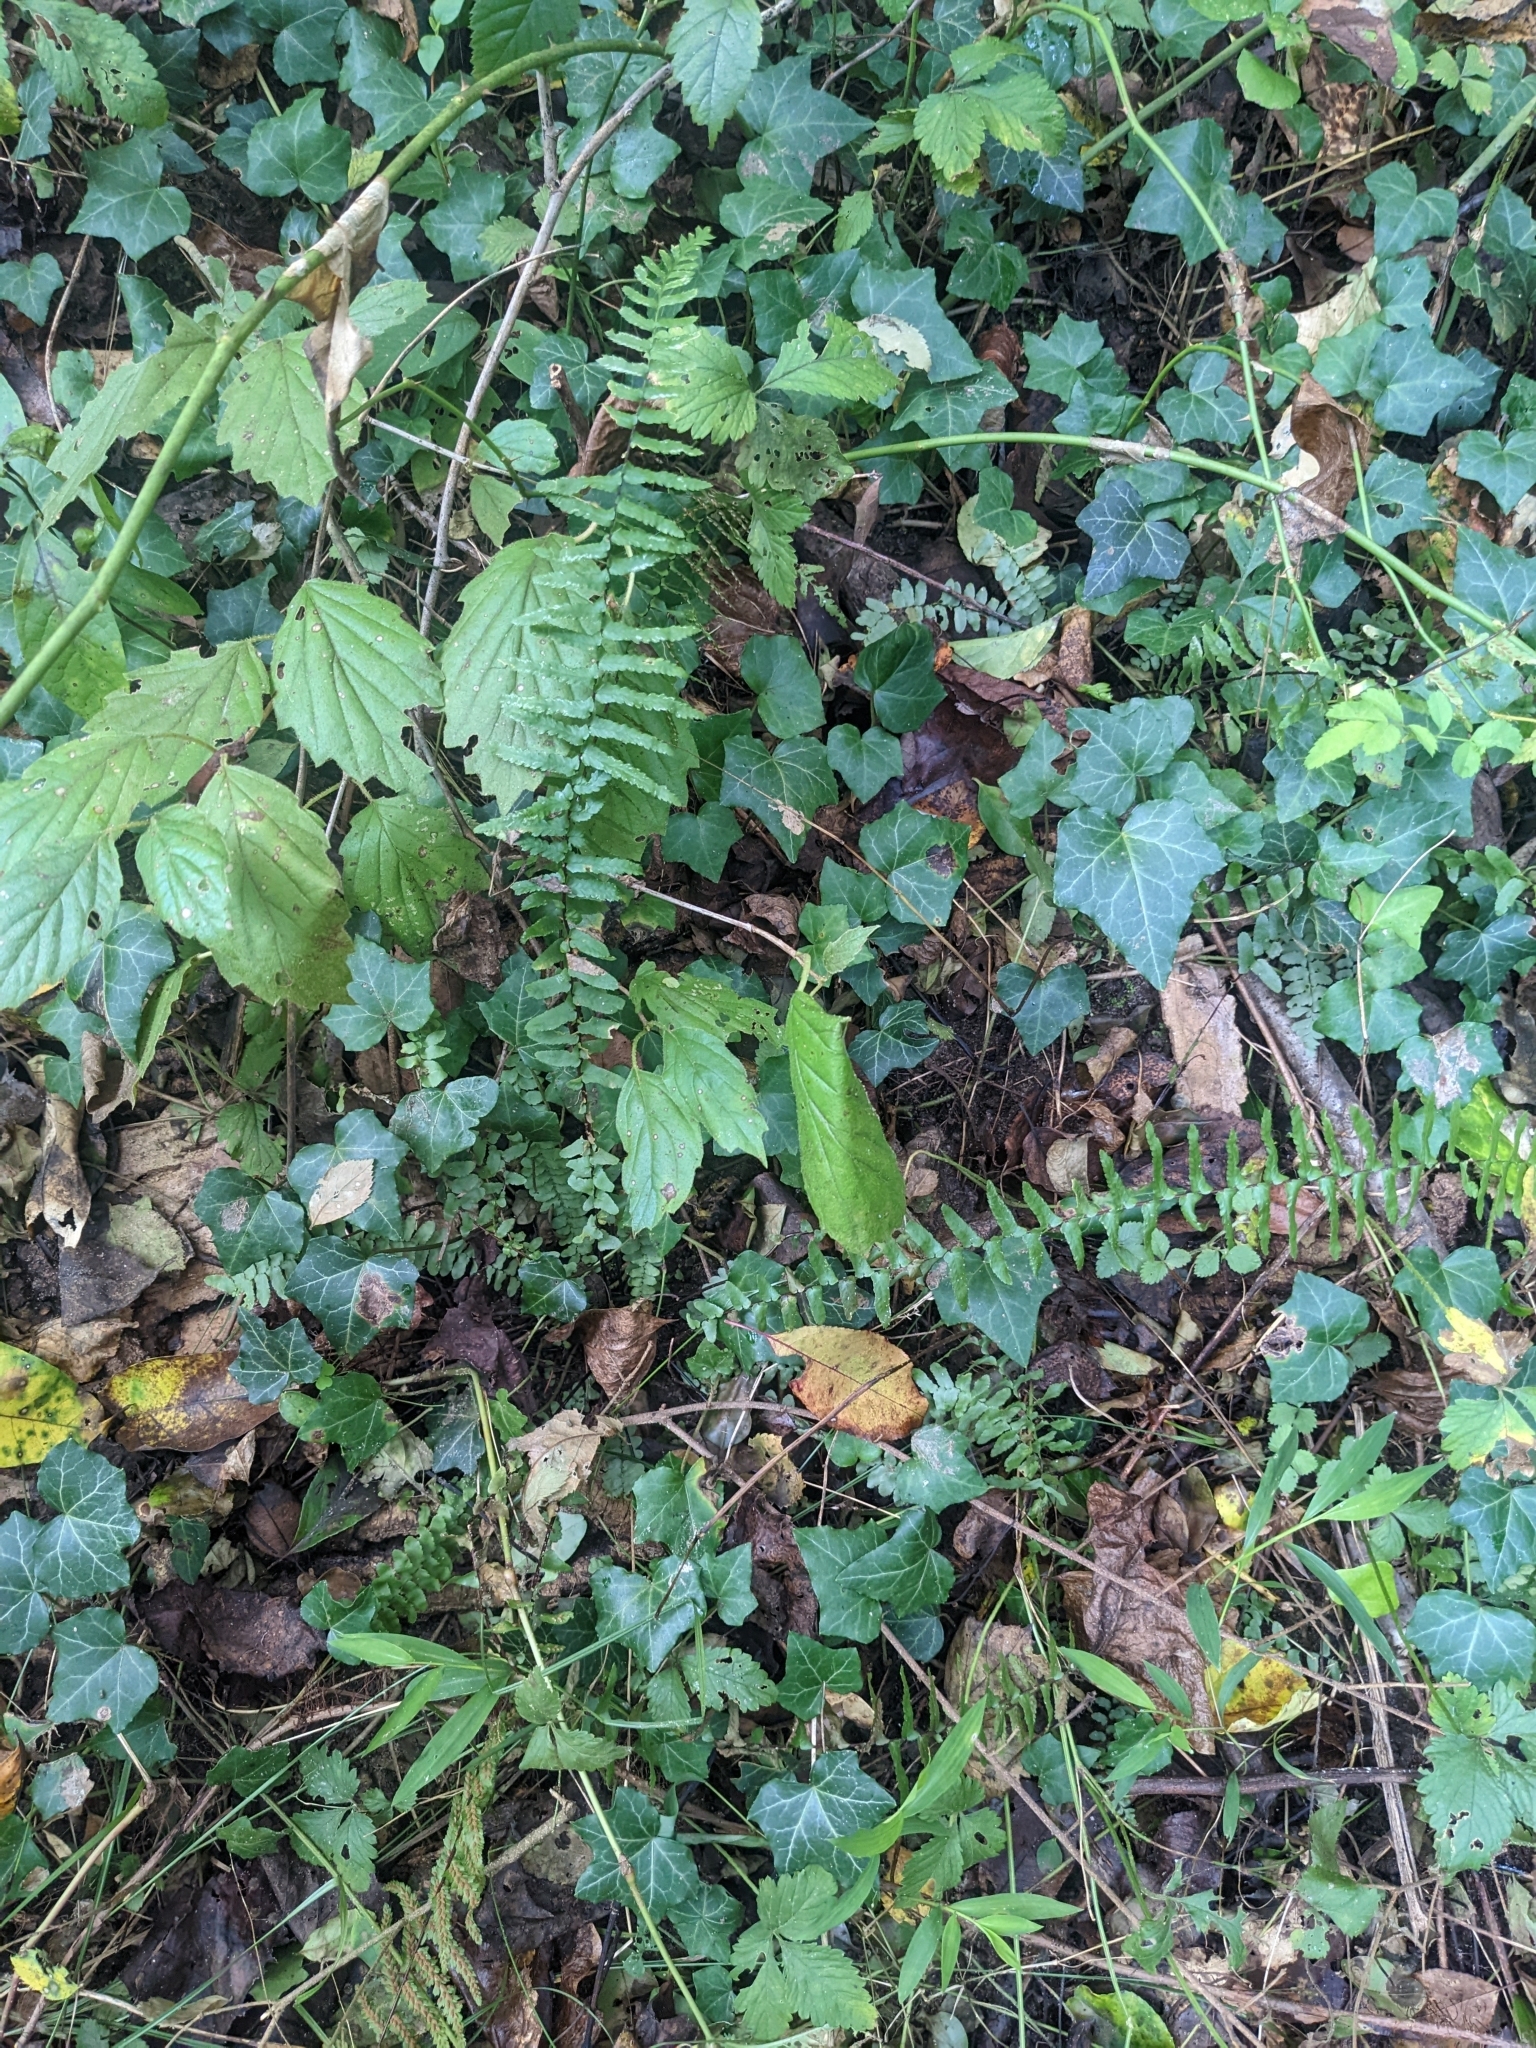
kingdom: Plantae
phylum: Tracheophyta
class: Polypodiopsida
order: Polypodiales
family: Aspleniaceae
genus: Asplenium
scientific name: Asplenium platyneuron
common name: Ebony spleenwort
